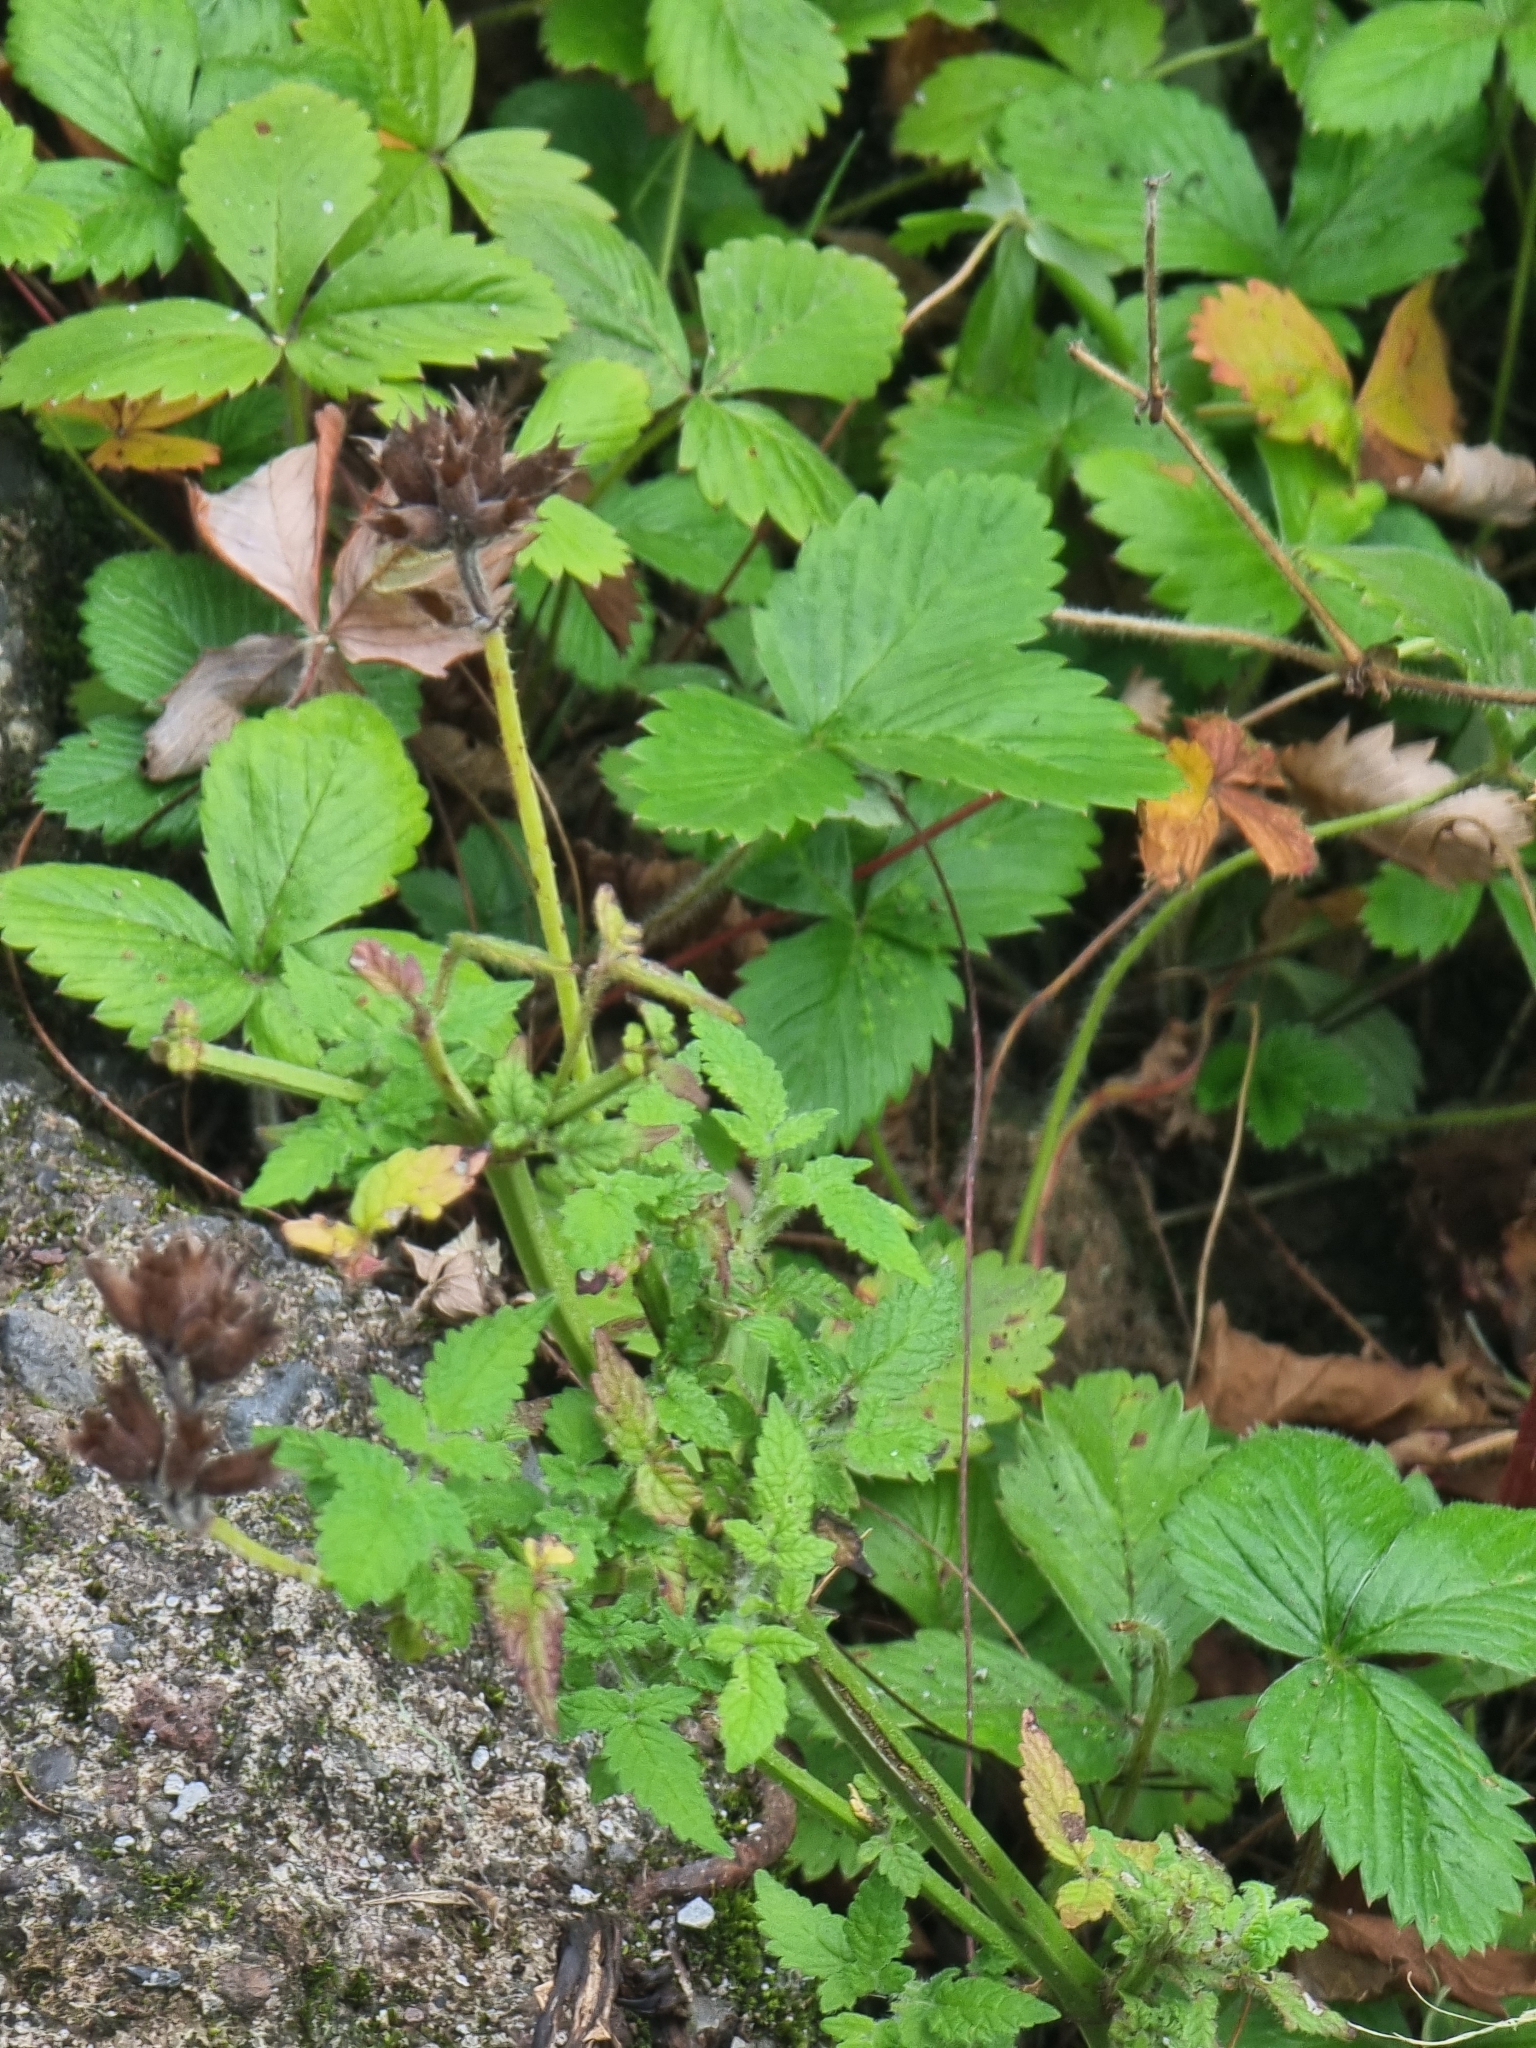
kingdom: Plantae
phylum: Tracheophyta
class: Magnoliopsida
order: Lamiales
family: Lamiaceae
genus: Cedronella
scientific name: Cedronella canariensis
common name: Canary islands balm
